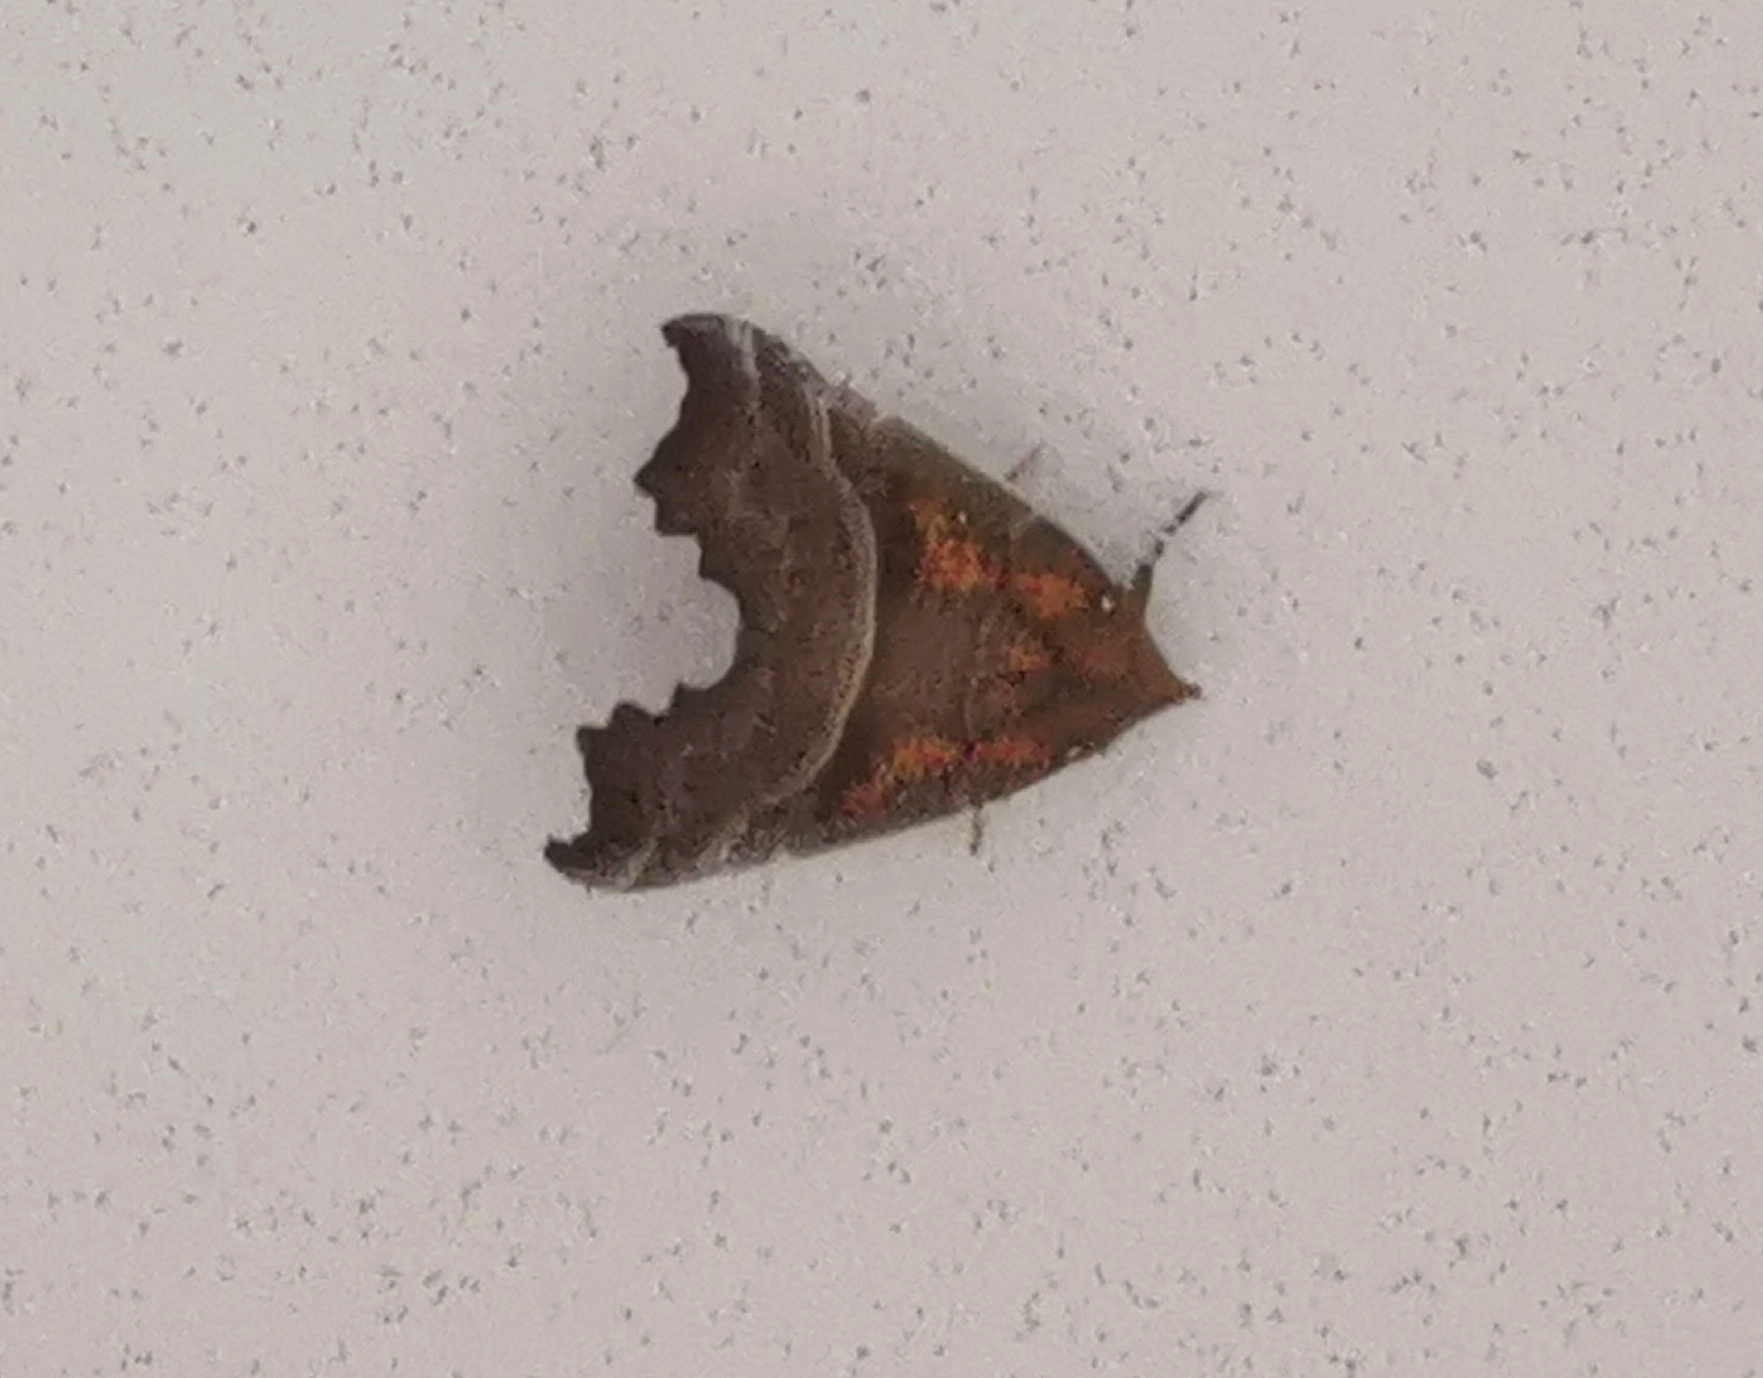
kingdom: Animalia
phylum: Arthropoda
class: Insecta
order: Lepidoptera
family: Erebidae
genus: Scoliopteryx
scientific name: Scoliopteryx libatrix
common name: Herald
